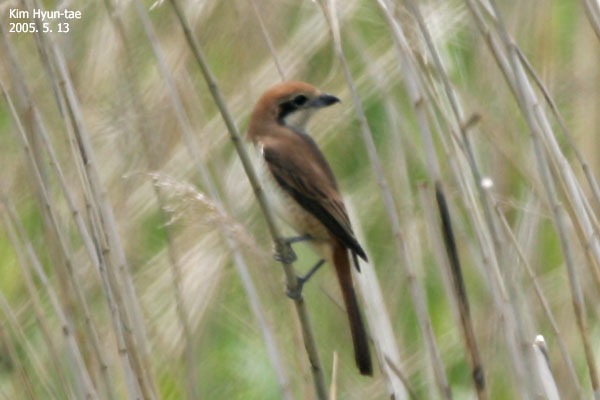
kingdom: Animalia
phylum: Chordata
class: Aves
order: Passeriformes
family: Laniidae
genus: Lanius
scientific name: Lanius cristatus
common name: Brown shrike
